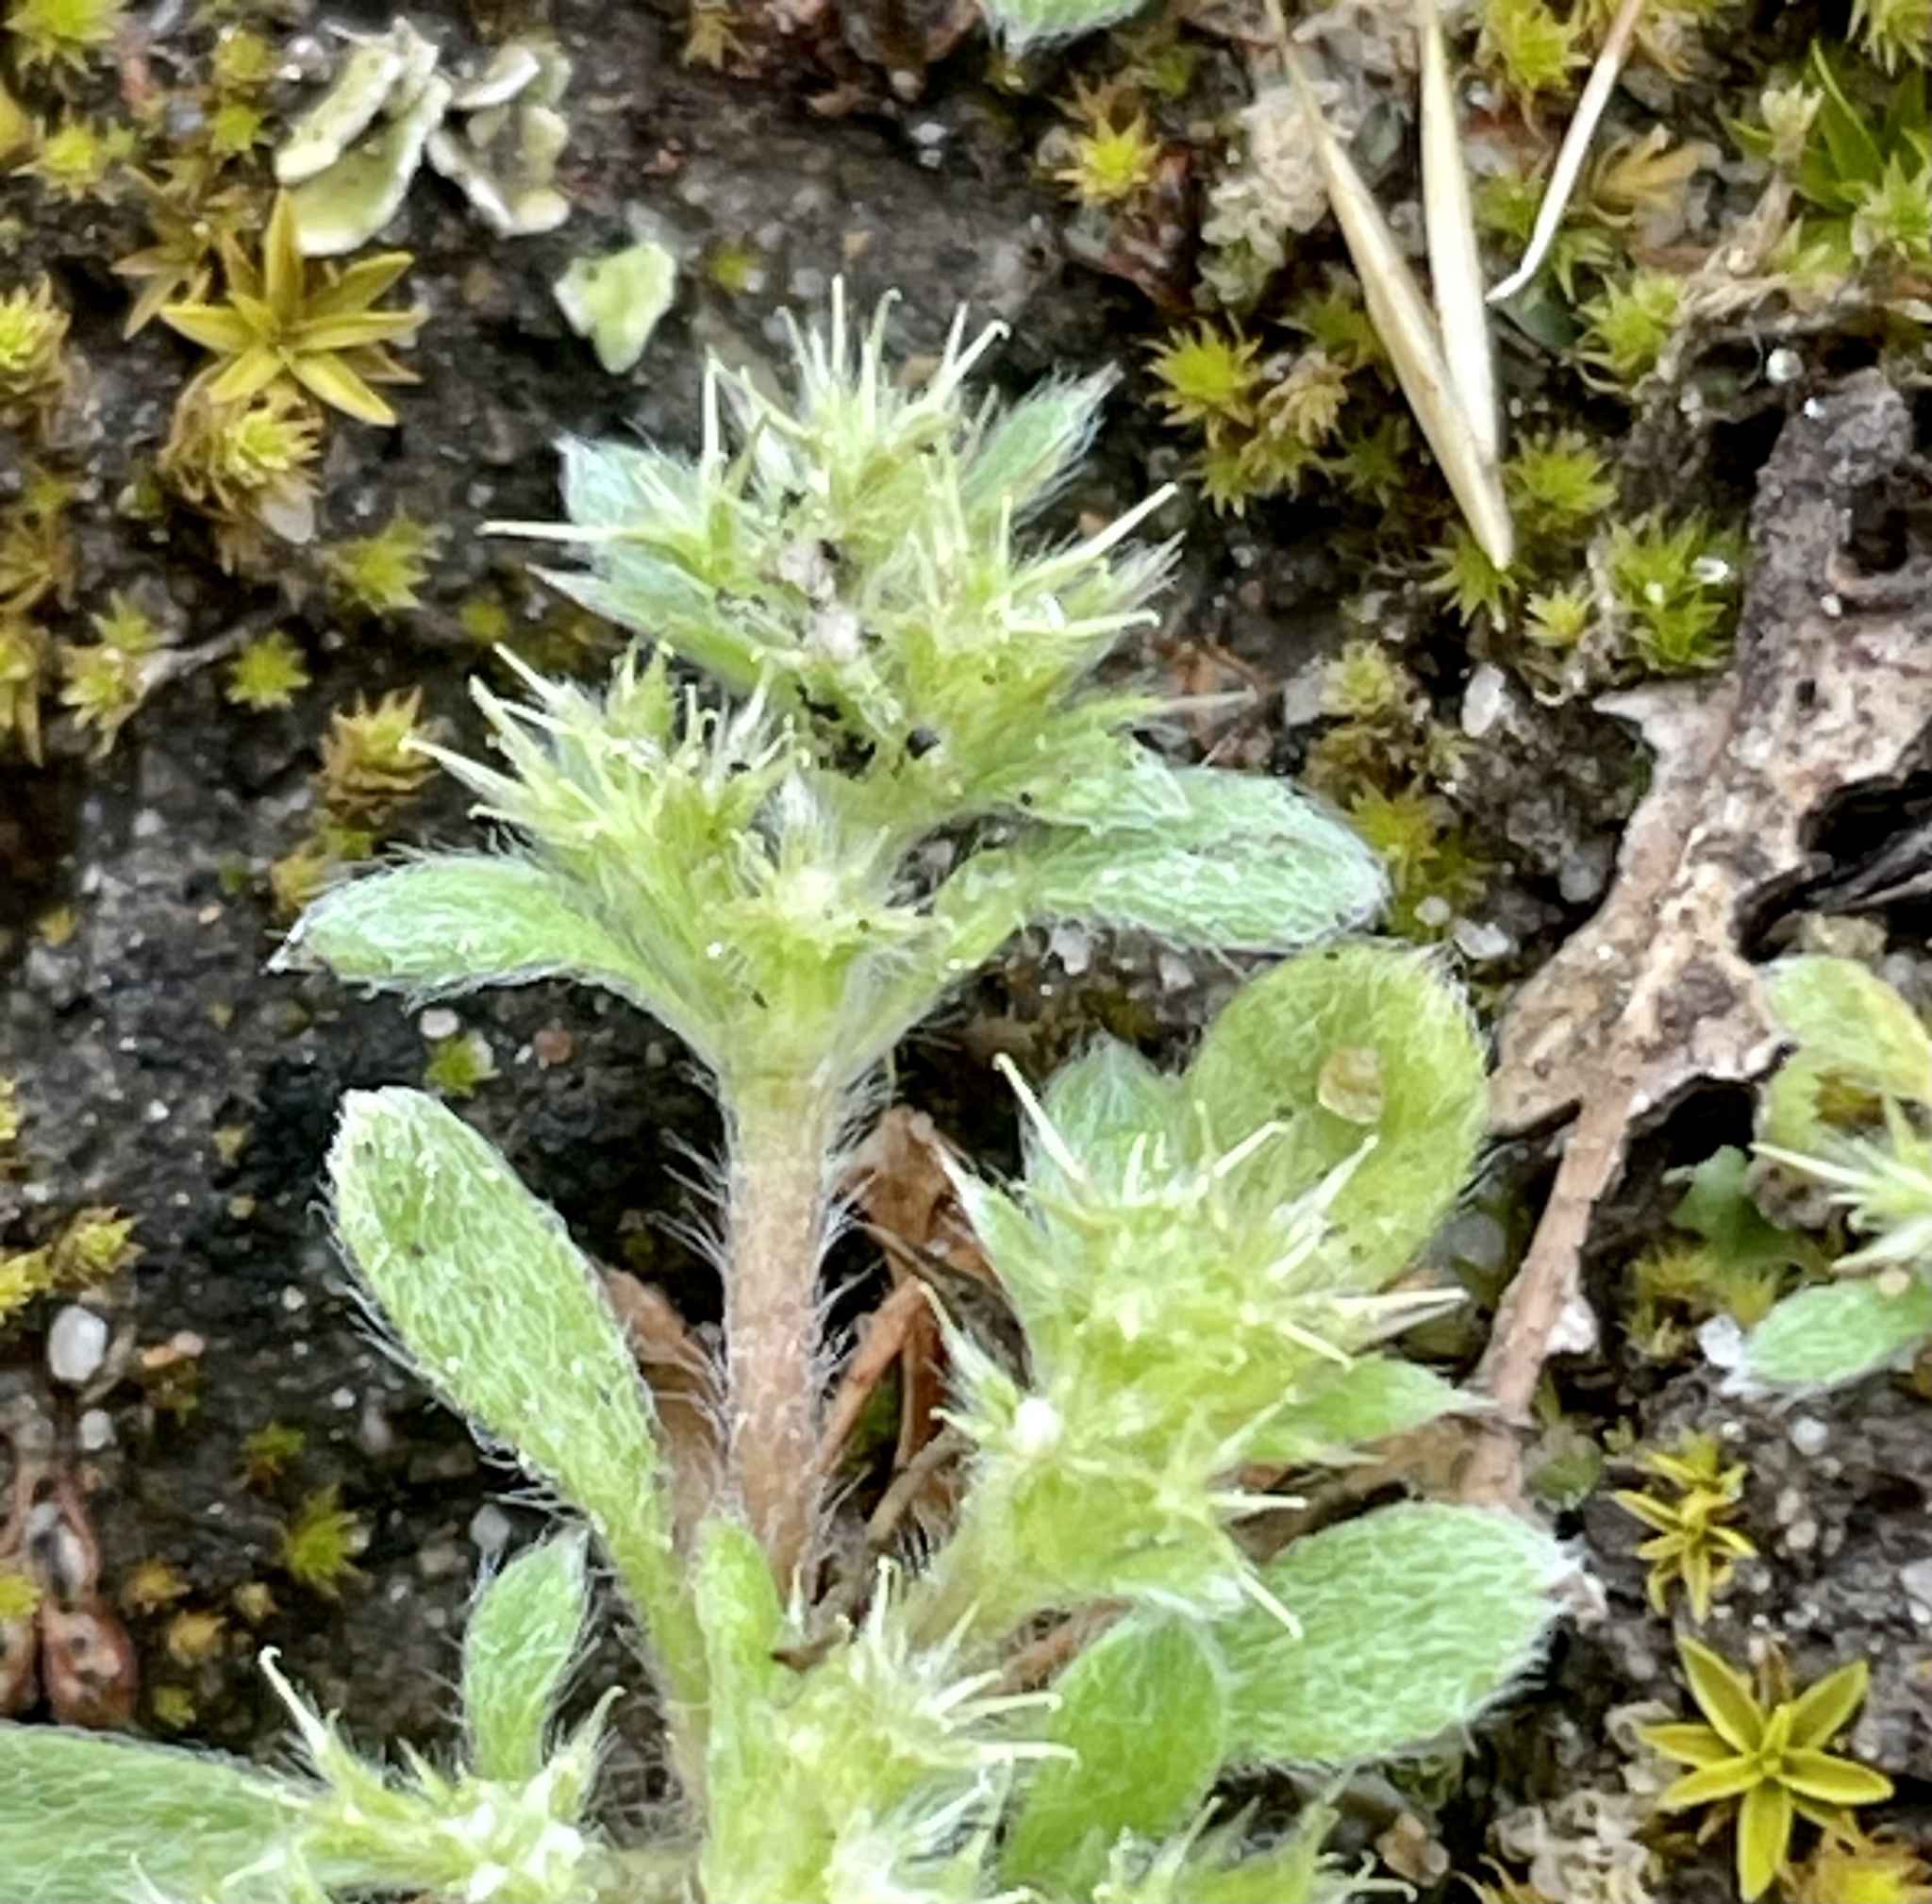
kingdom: Plantae
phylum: Tracheophyta
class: Magnoliopsida
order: Caryophyllales
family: Polygonaceae
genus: Chorizanthe
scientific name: Chorizanthe minutiflora
